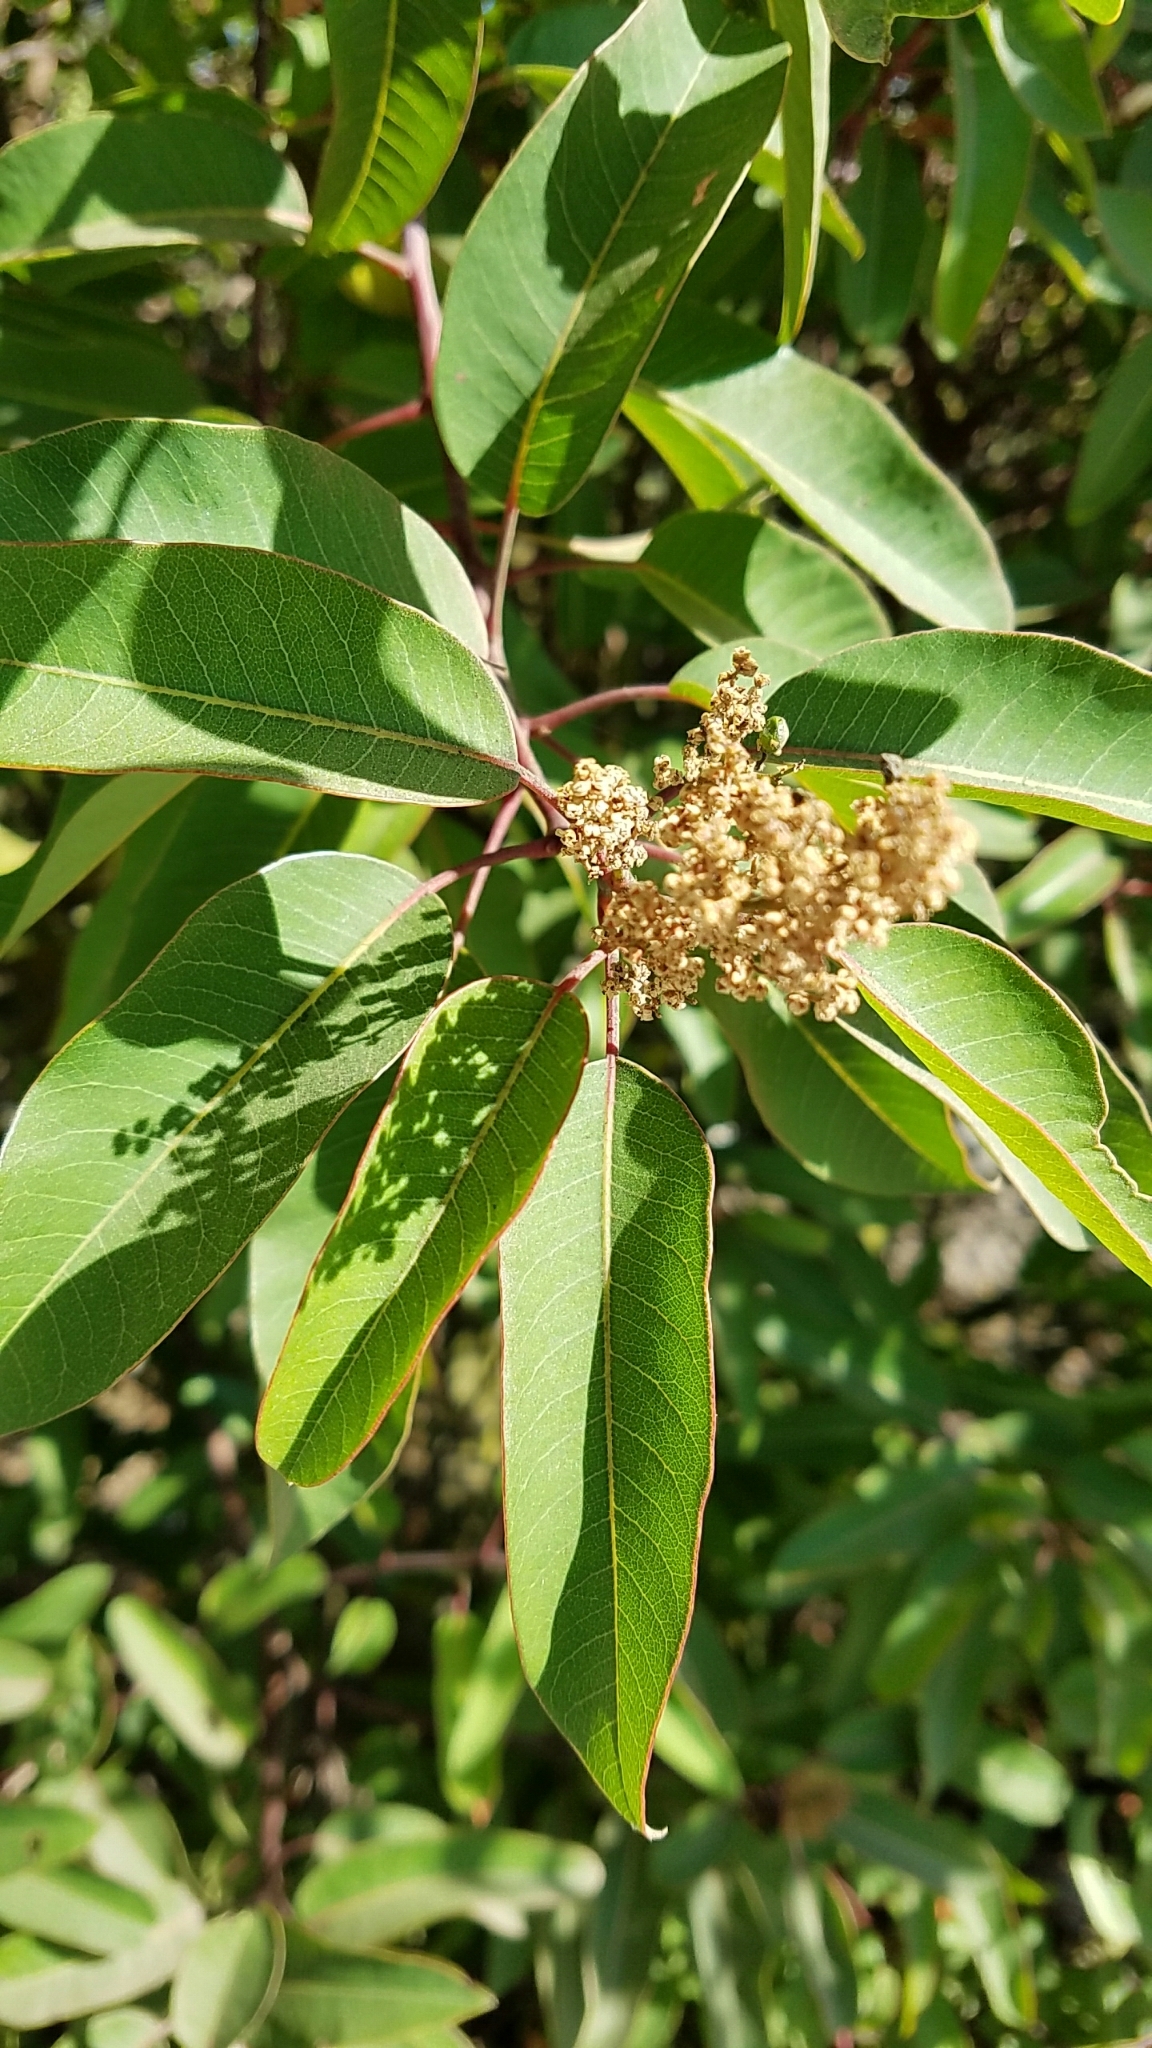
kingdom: Plantae
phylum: Tracheophyta
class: Magnoliopsida
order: Sapindales
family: Anacardiaceae
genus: Malosma
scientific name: Malosma laurina
